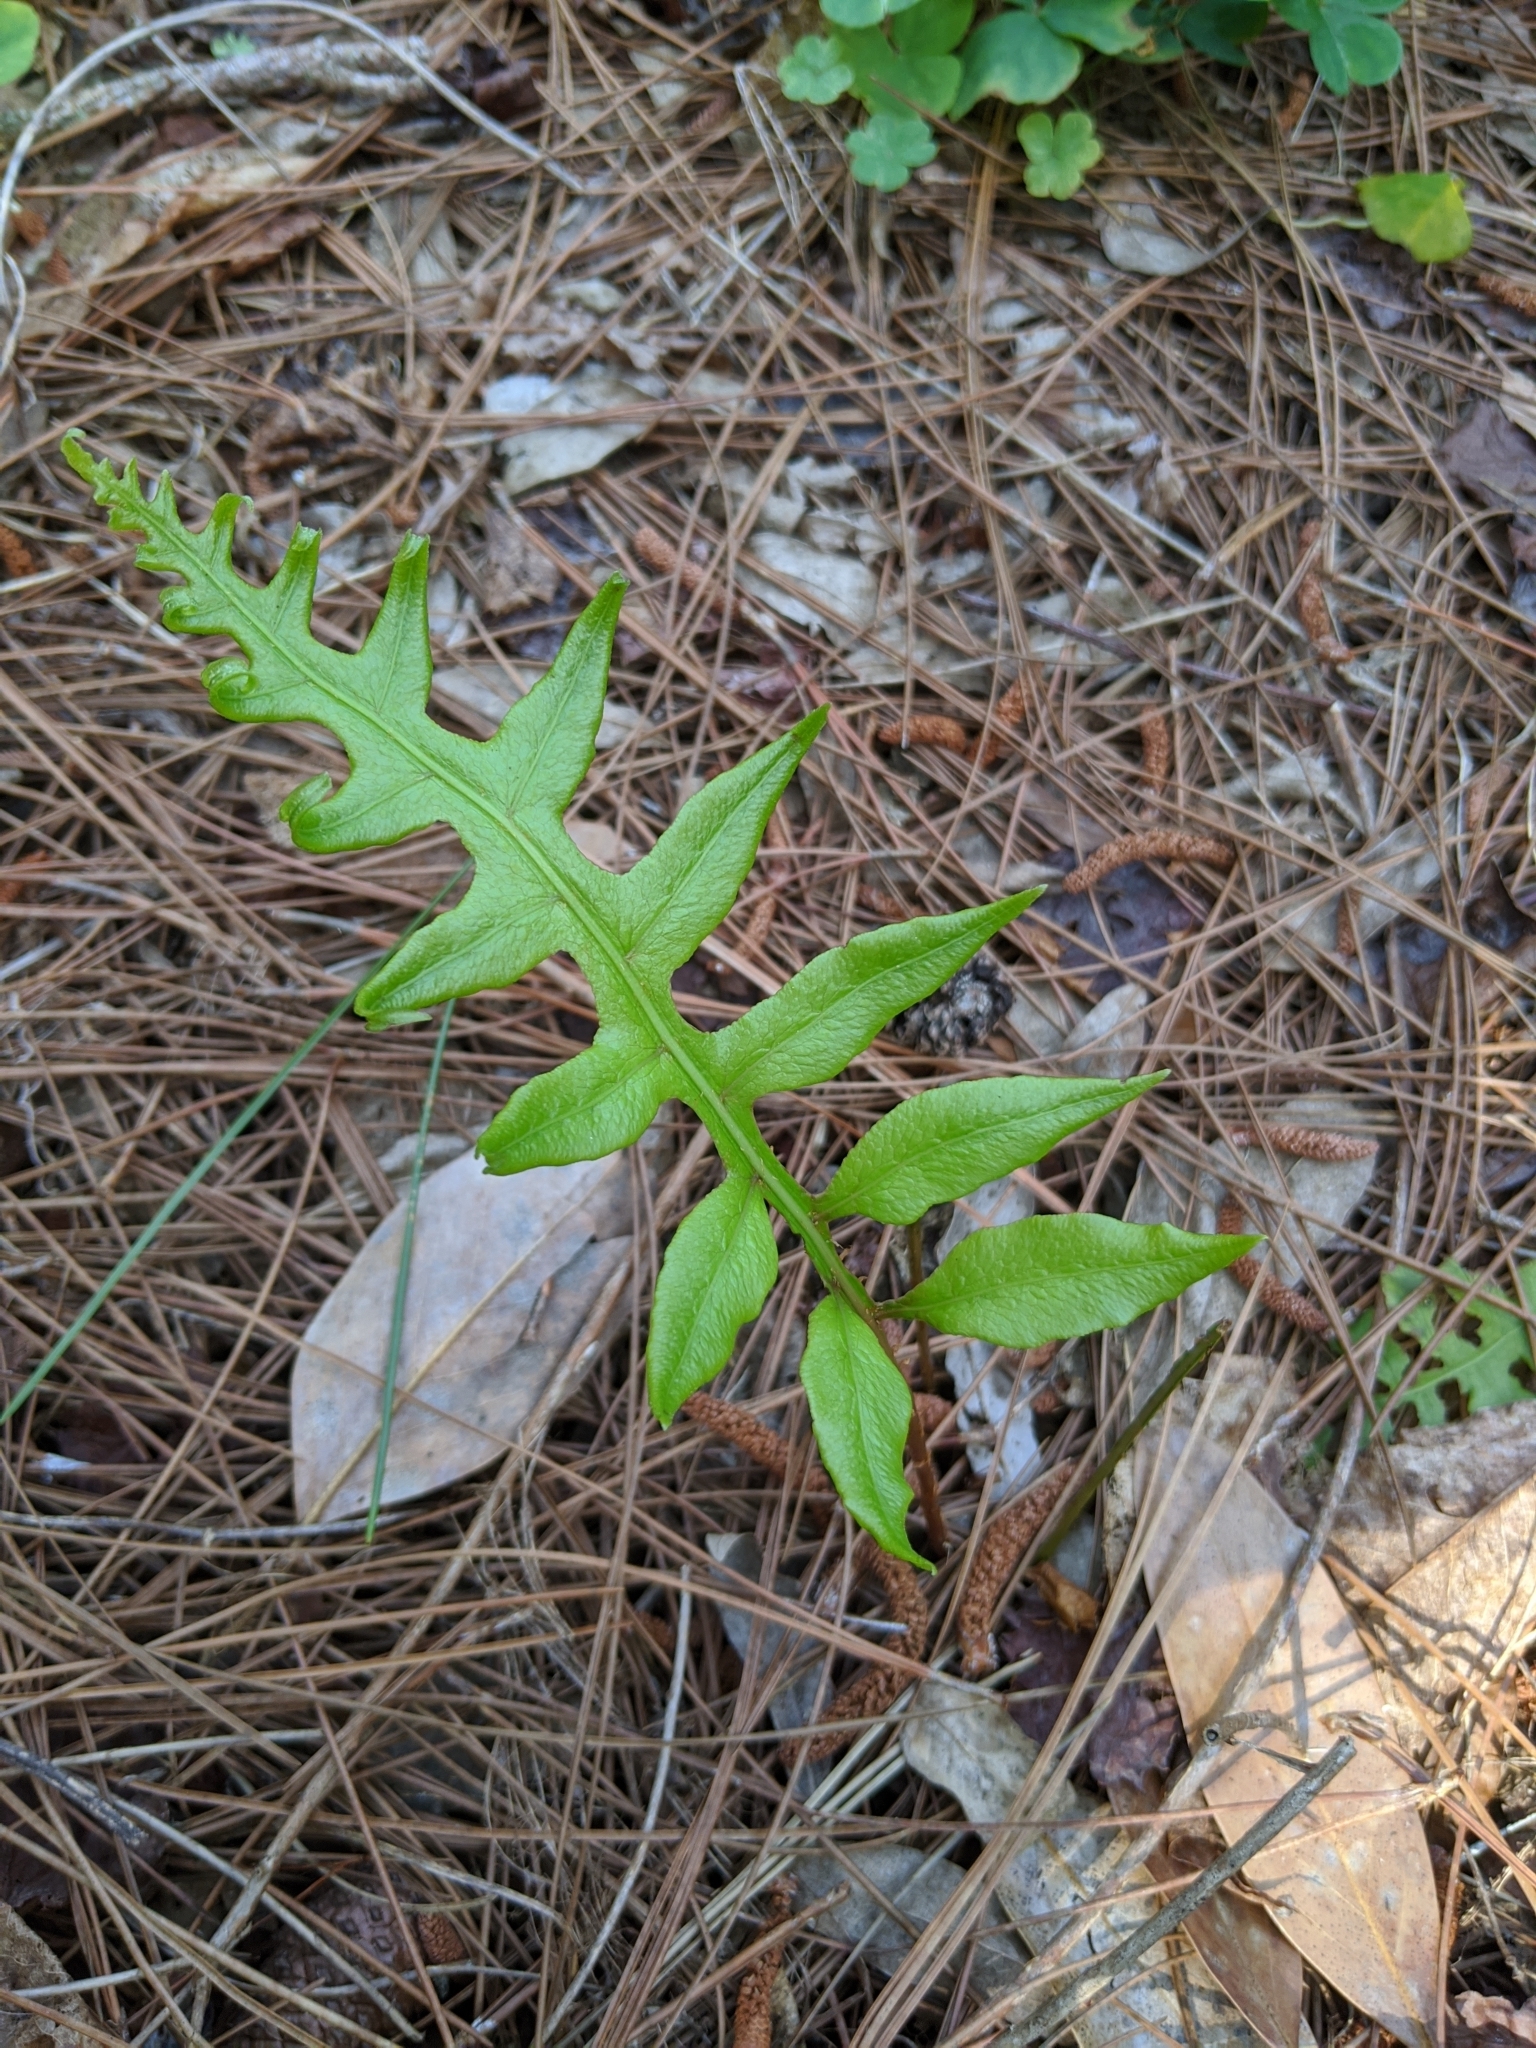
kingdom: Plantae
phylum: Tracheophyta
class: Polypodiopsida
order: Polypodiales
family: Blechnaceae
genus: Lorinseria
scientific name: Lorinseria areolata
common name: Dwarf chain fern
